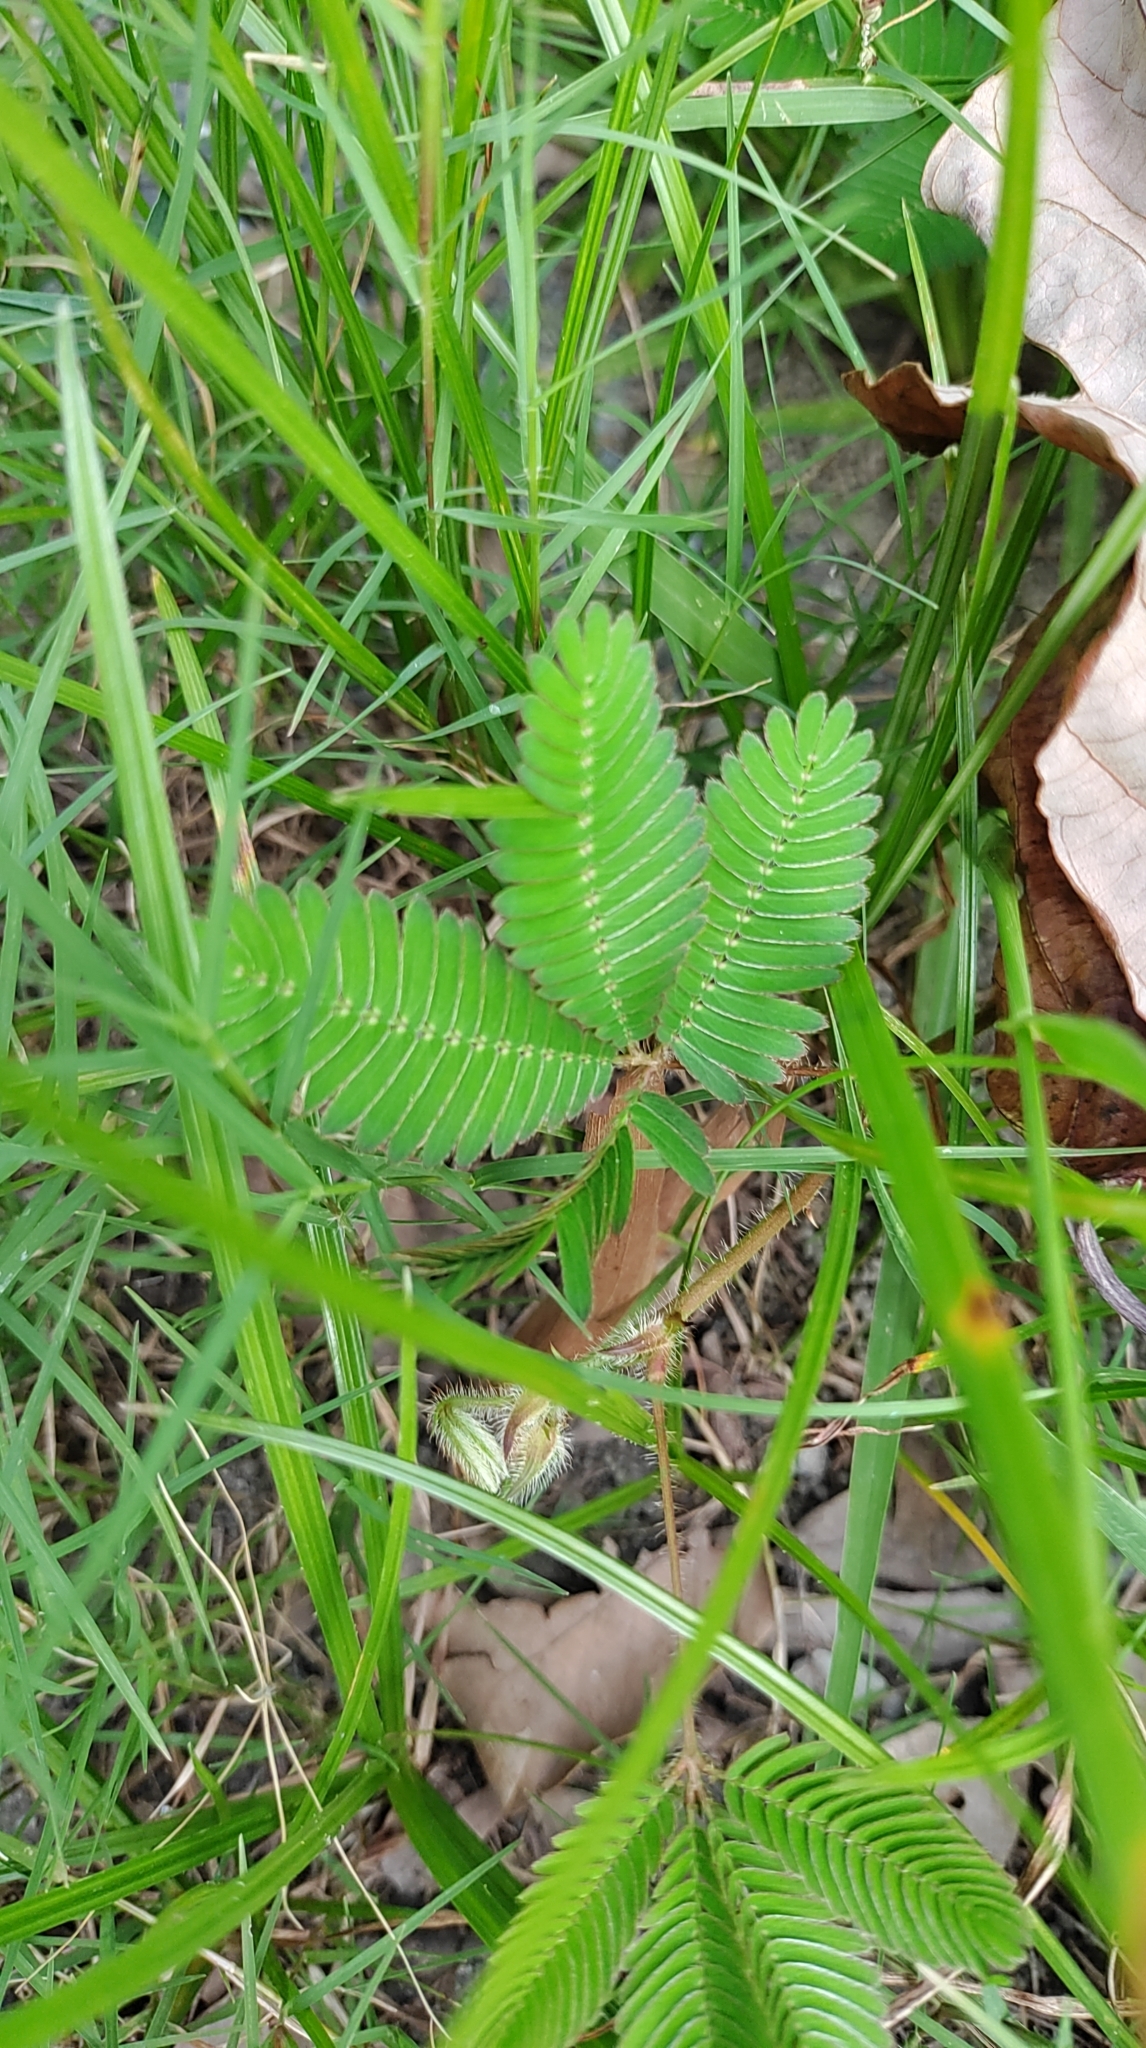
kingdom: Plantae
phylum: Tracheophyta
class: Magnoliopsida
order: Fabales
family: Fabaceae
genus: Mimosa
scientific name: Mimosa pudica
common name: Sensitive plant
